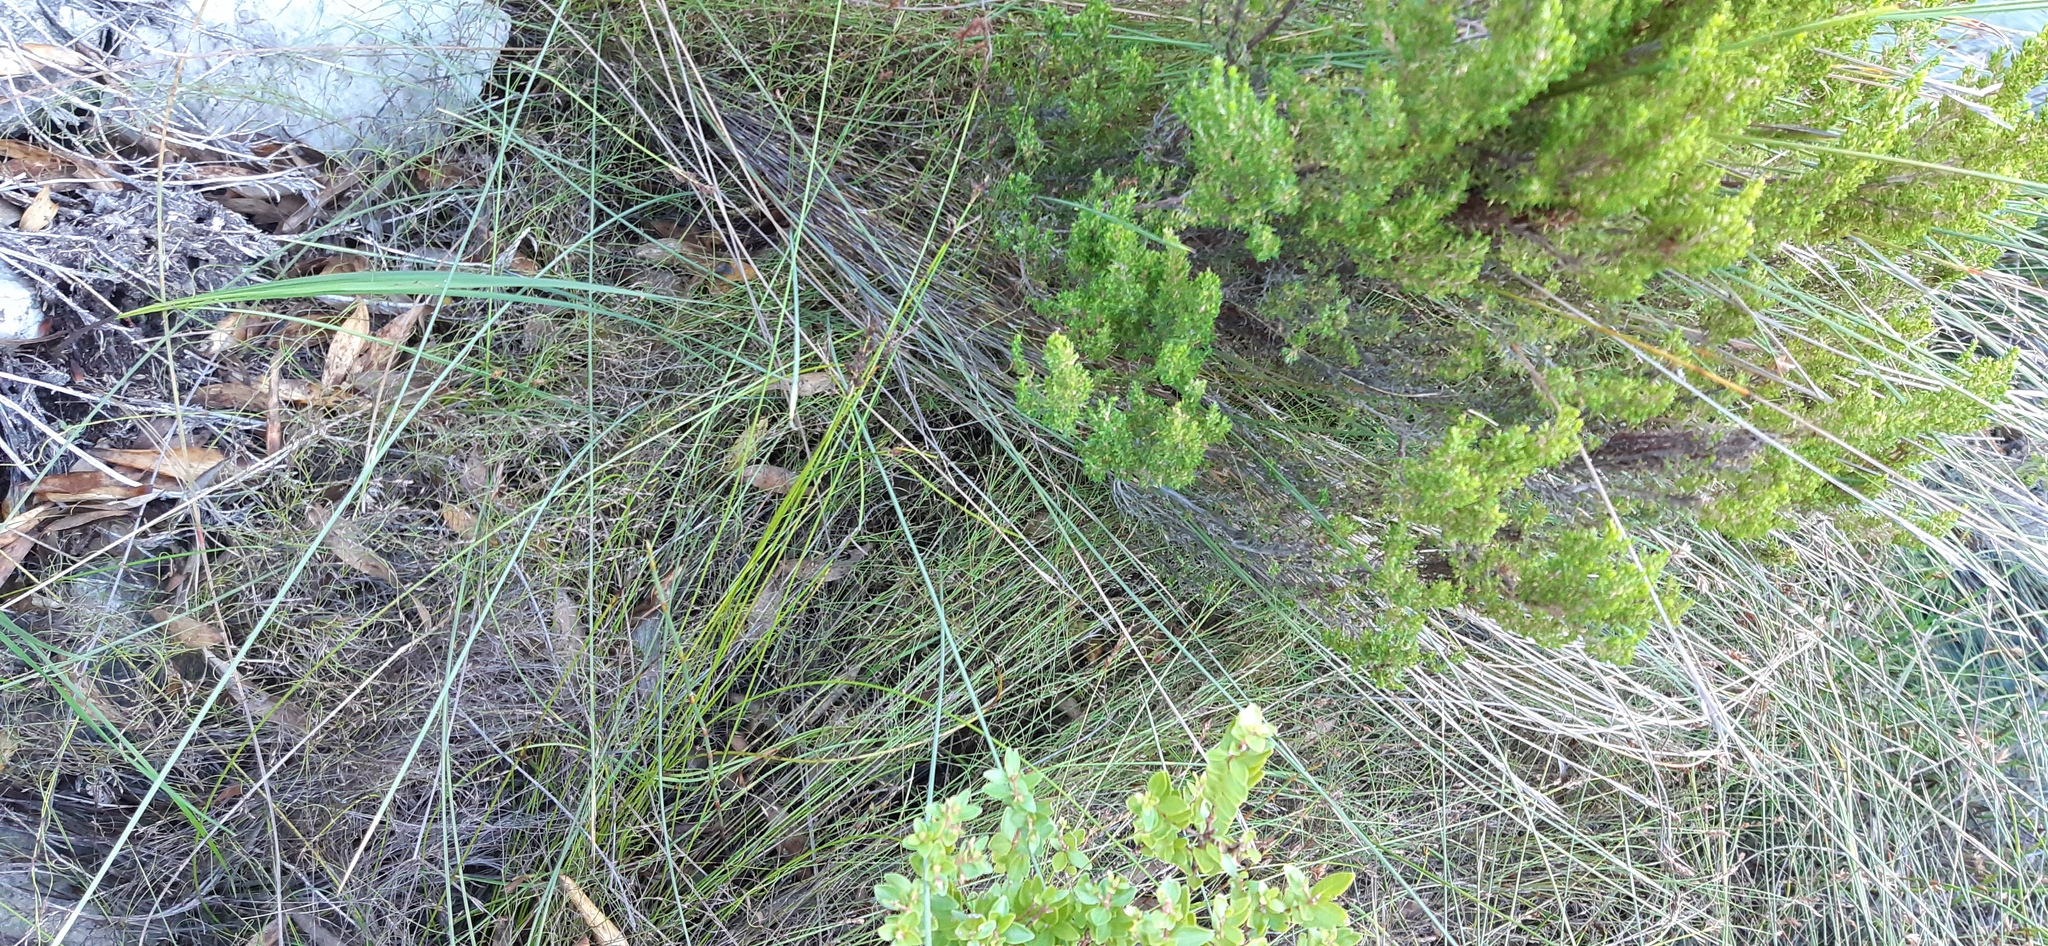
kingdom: Plantae
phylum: Tracheophyta
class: Liliopsida
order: Poales
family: Cyperaceae
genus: Schoenus
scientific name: Schoenus purpurascens
